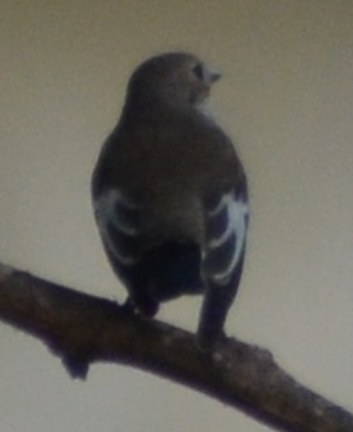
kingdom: Animalia
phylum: Chordata
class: Aves
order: Passeriformes
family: Muscicapidae
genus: Ficedula
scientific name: Ficedula hypoleuca
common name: European pied flycatcher
